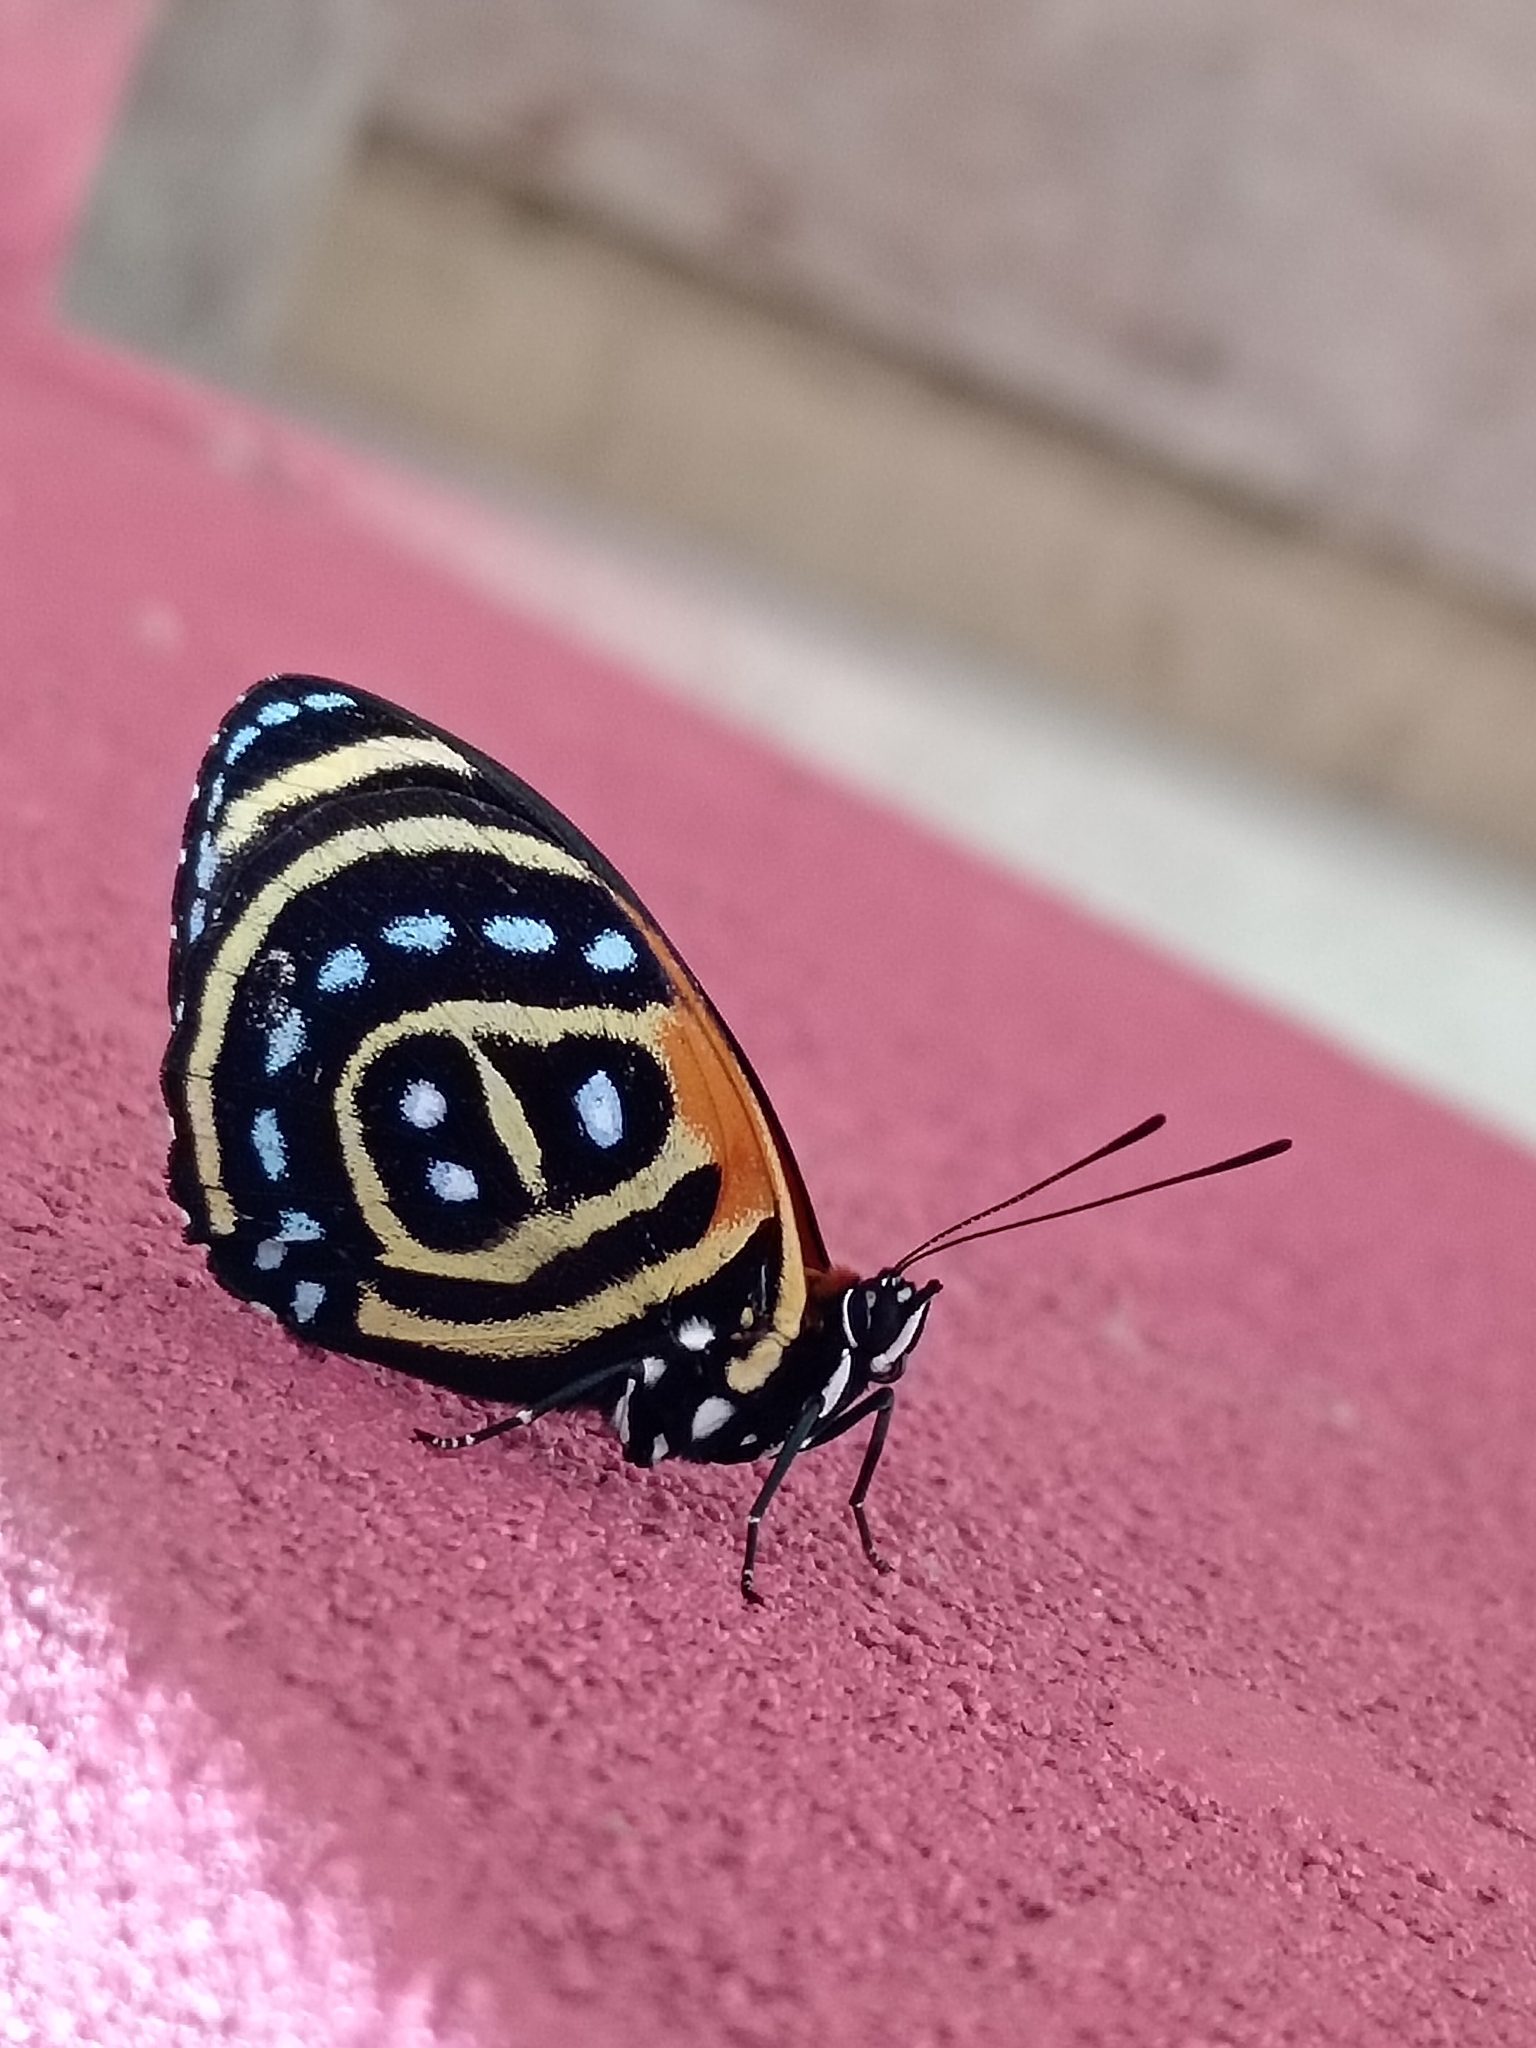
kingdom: Animalia
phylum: Arthropoda
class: Insecta
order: Lepidoptera
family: Nymphalidae
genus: Catagramma
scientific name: Catagramma cynosura
